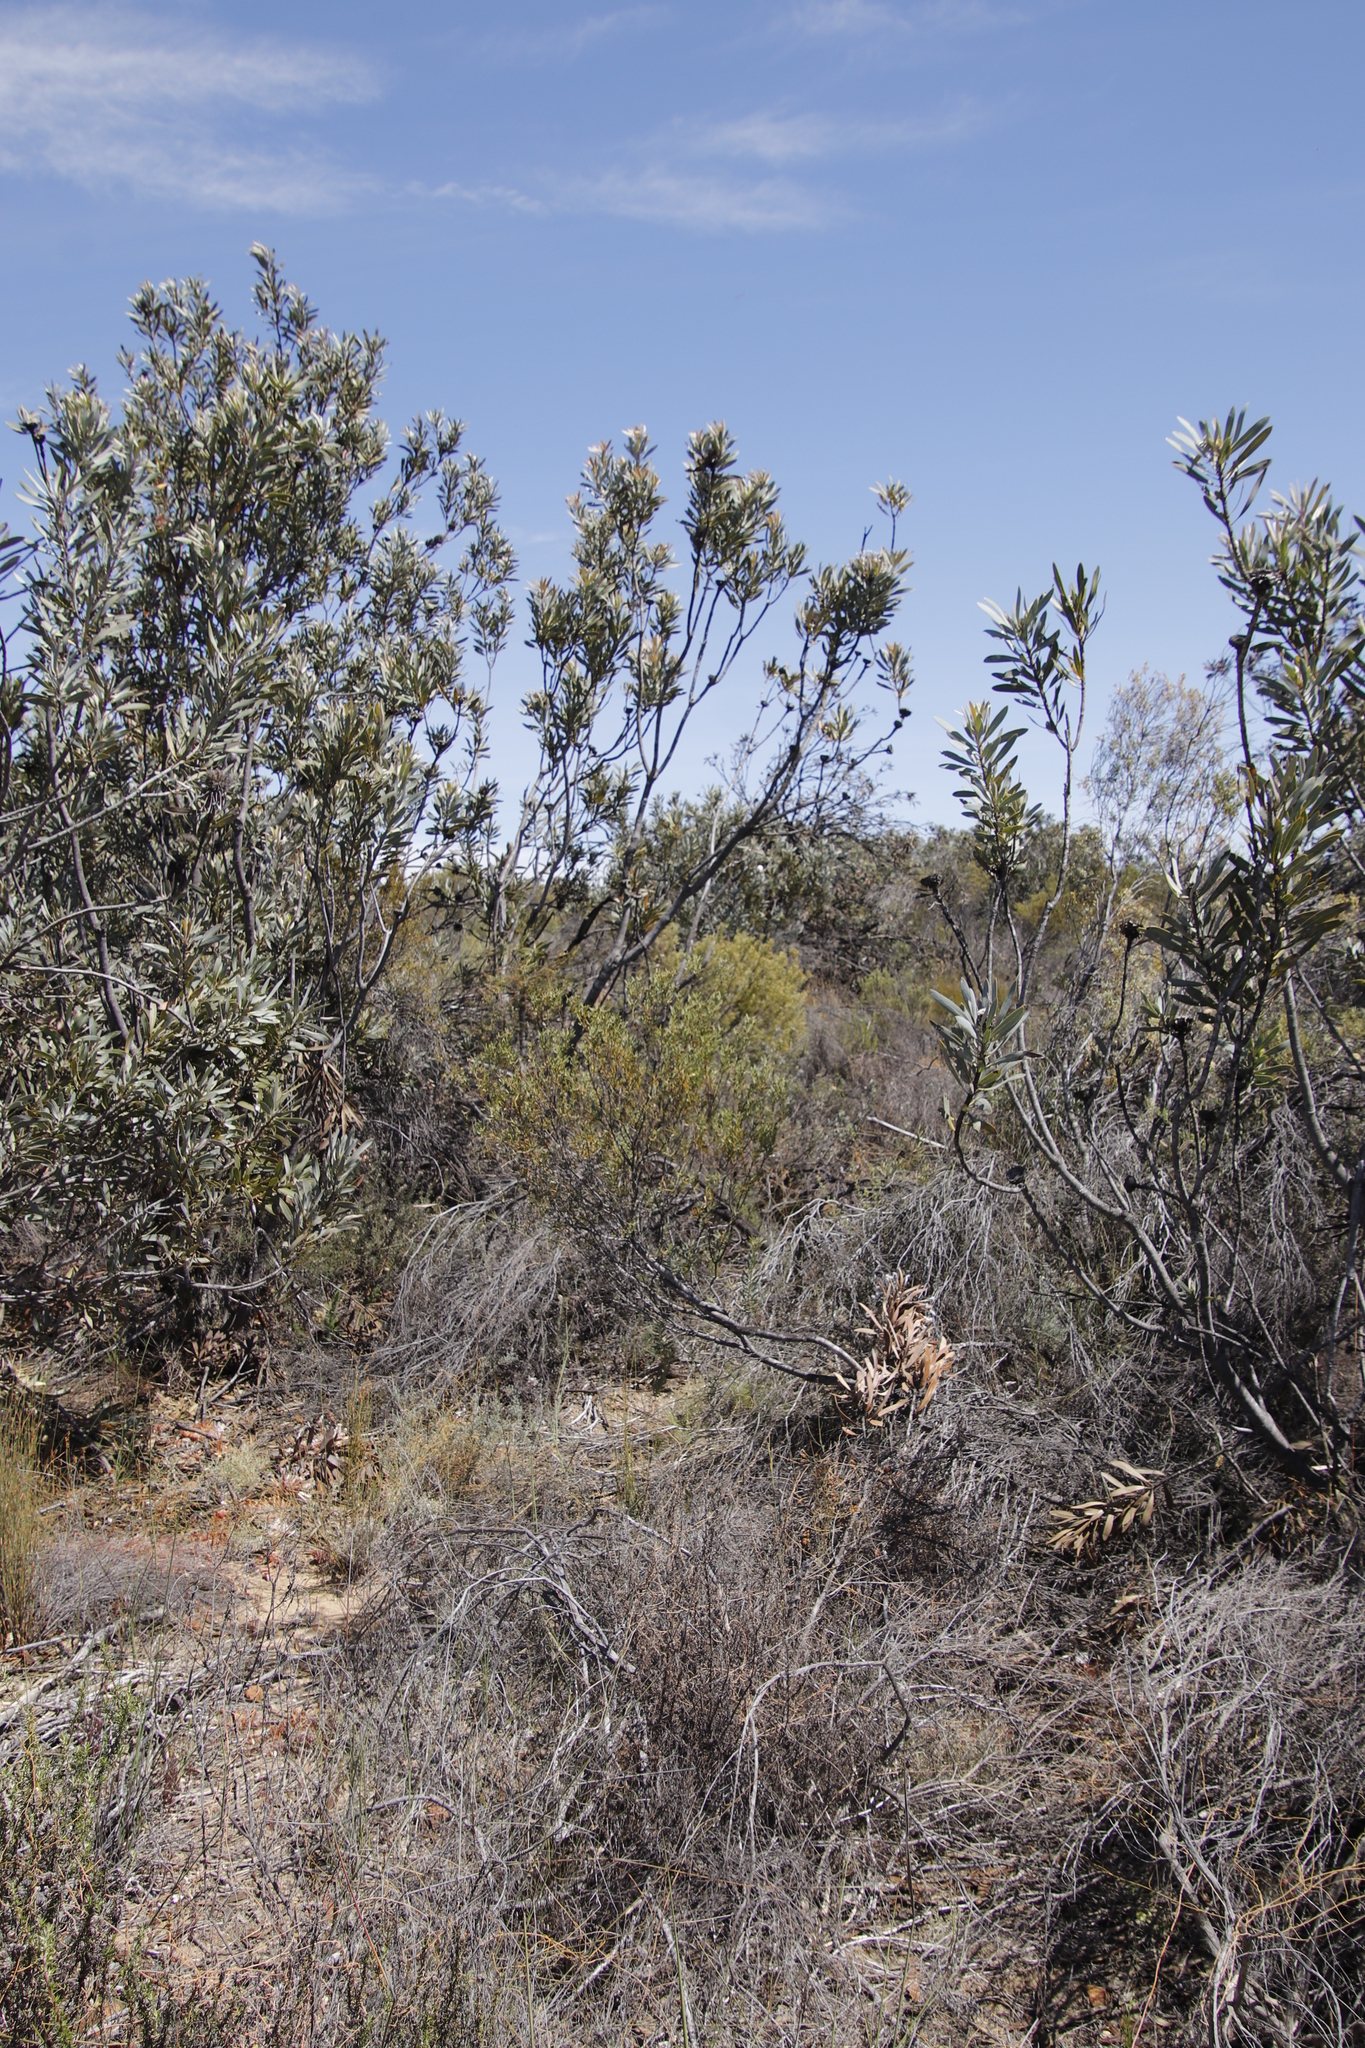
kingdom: Plantae
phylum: Tracheophyta
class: Magnoliopsida
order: Proteales
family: Proteaceae
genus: Protea
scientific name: Protea laurifolia
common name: Grey-leaf sugarbsh
